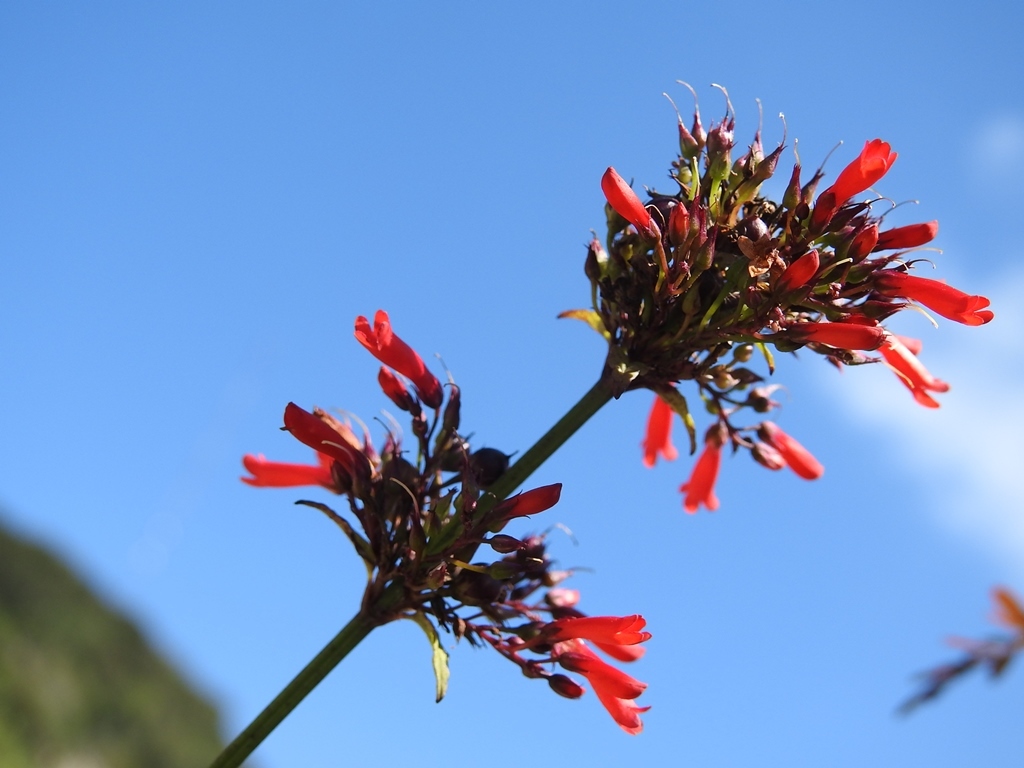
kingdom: Plantae
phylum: Tracheophyta
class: Magnoliopsida
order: Lamiales
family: Plantaginaceae
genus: Russelia
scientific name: Russelia verticillata
